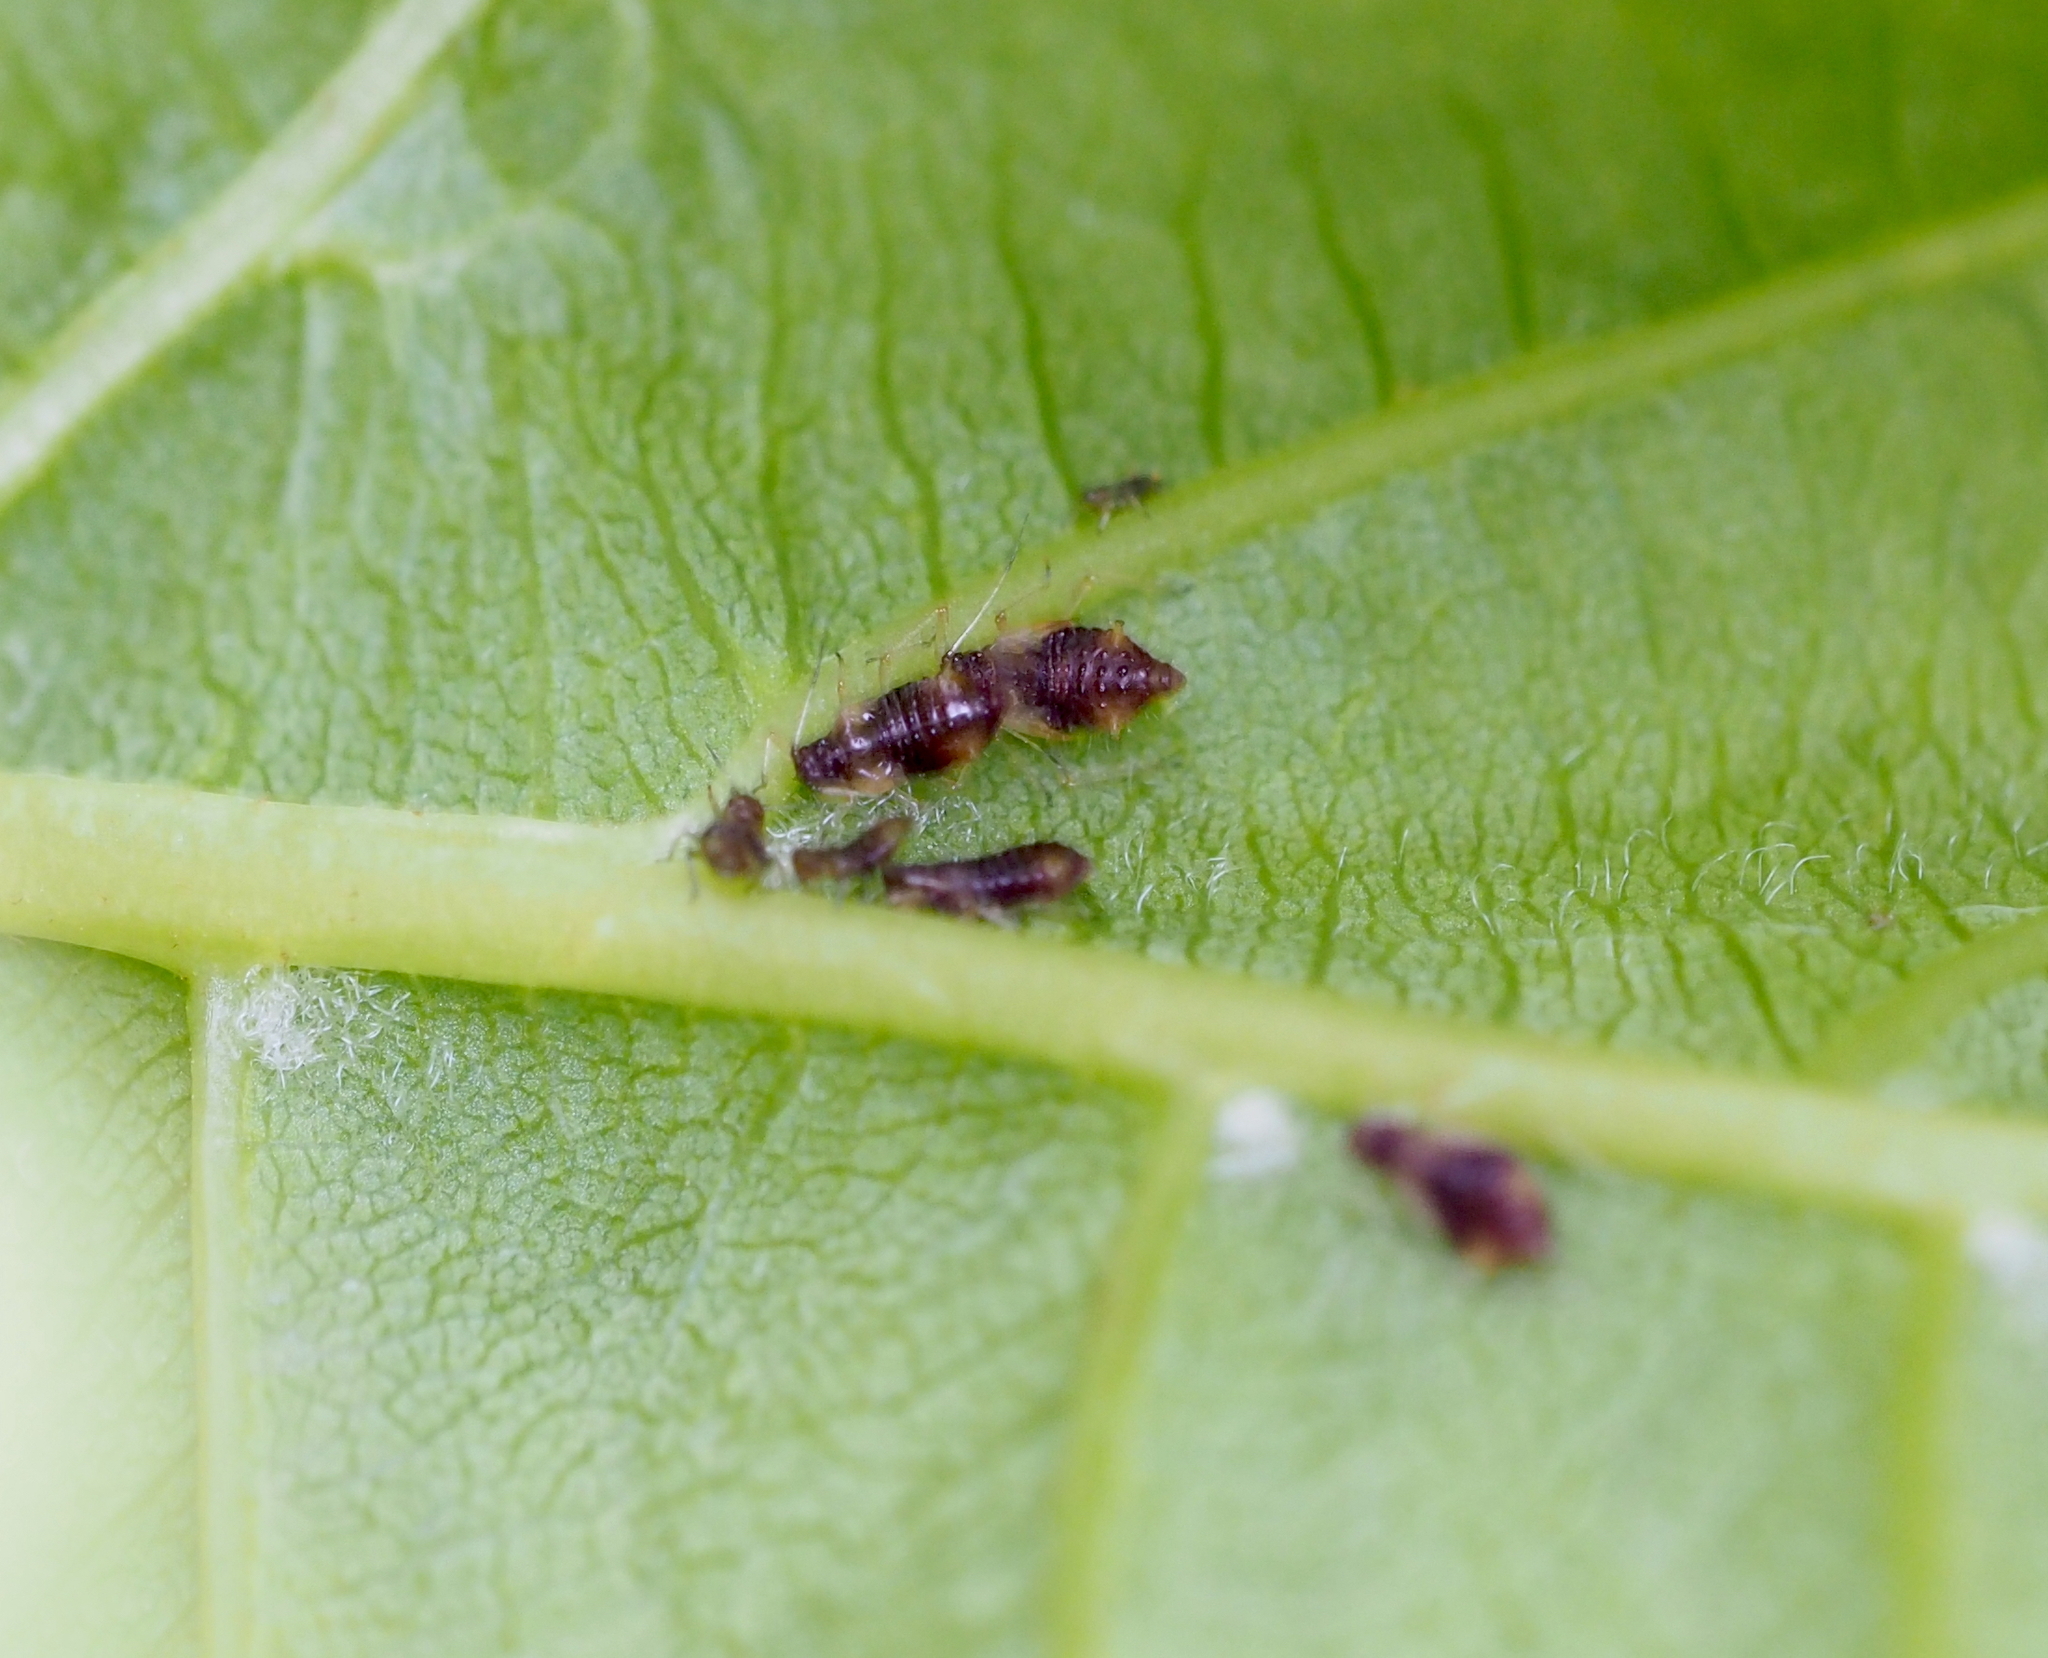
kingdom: Animalia
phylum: Arthropoda
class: Insecta
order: Hemiptera
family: Aphididae
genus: Periphyllus
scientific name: Periphyllus testudinaceus
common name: Common maple aphid
